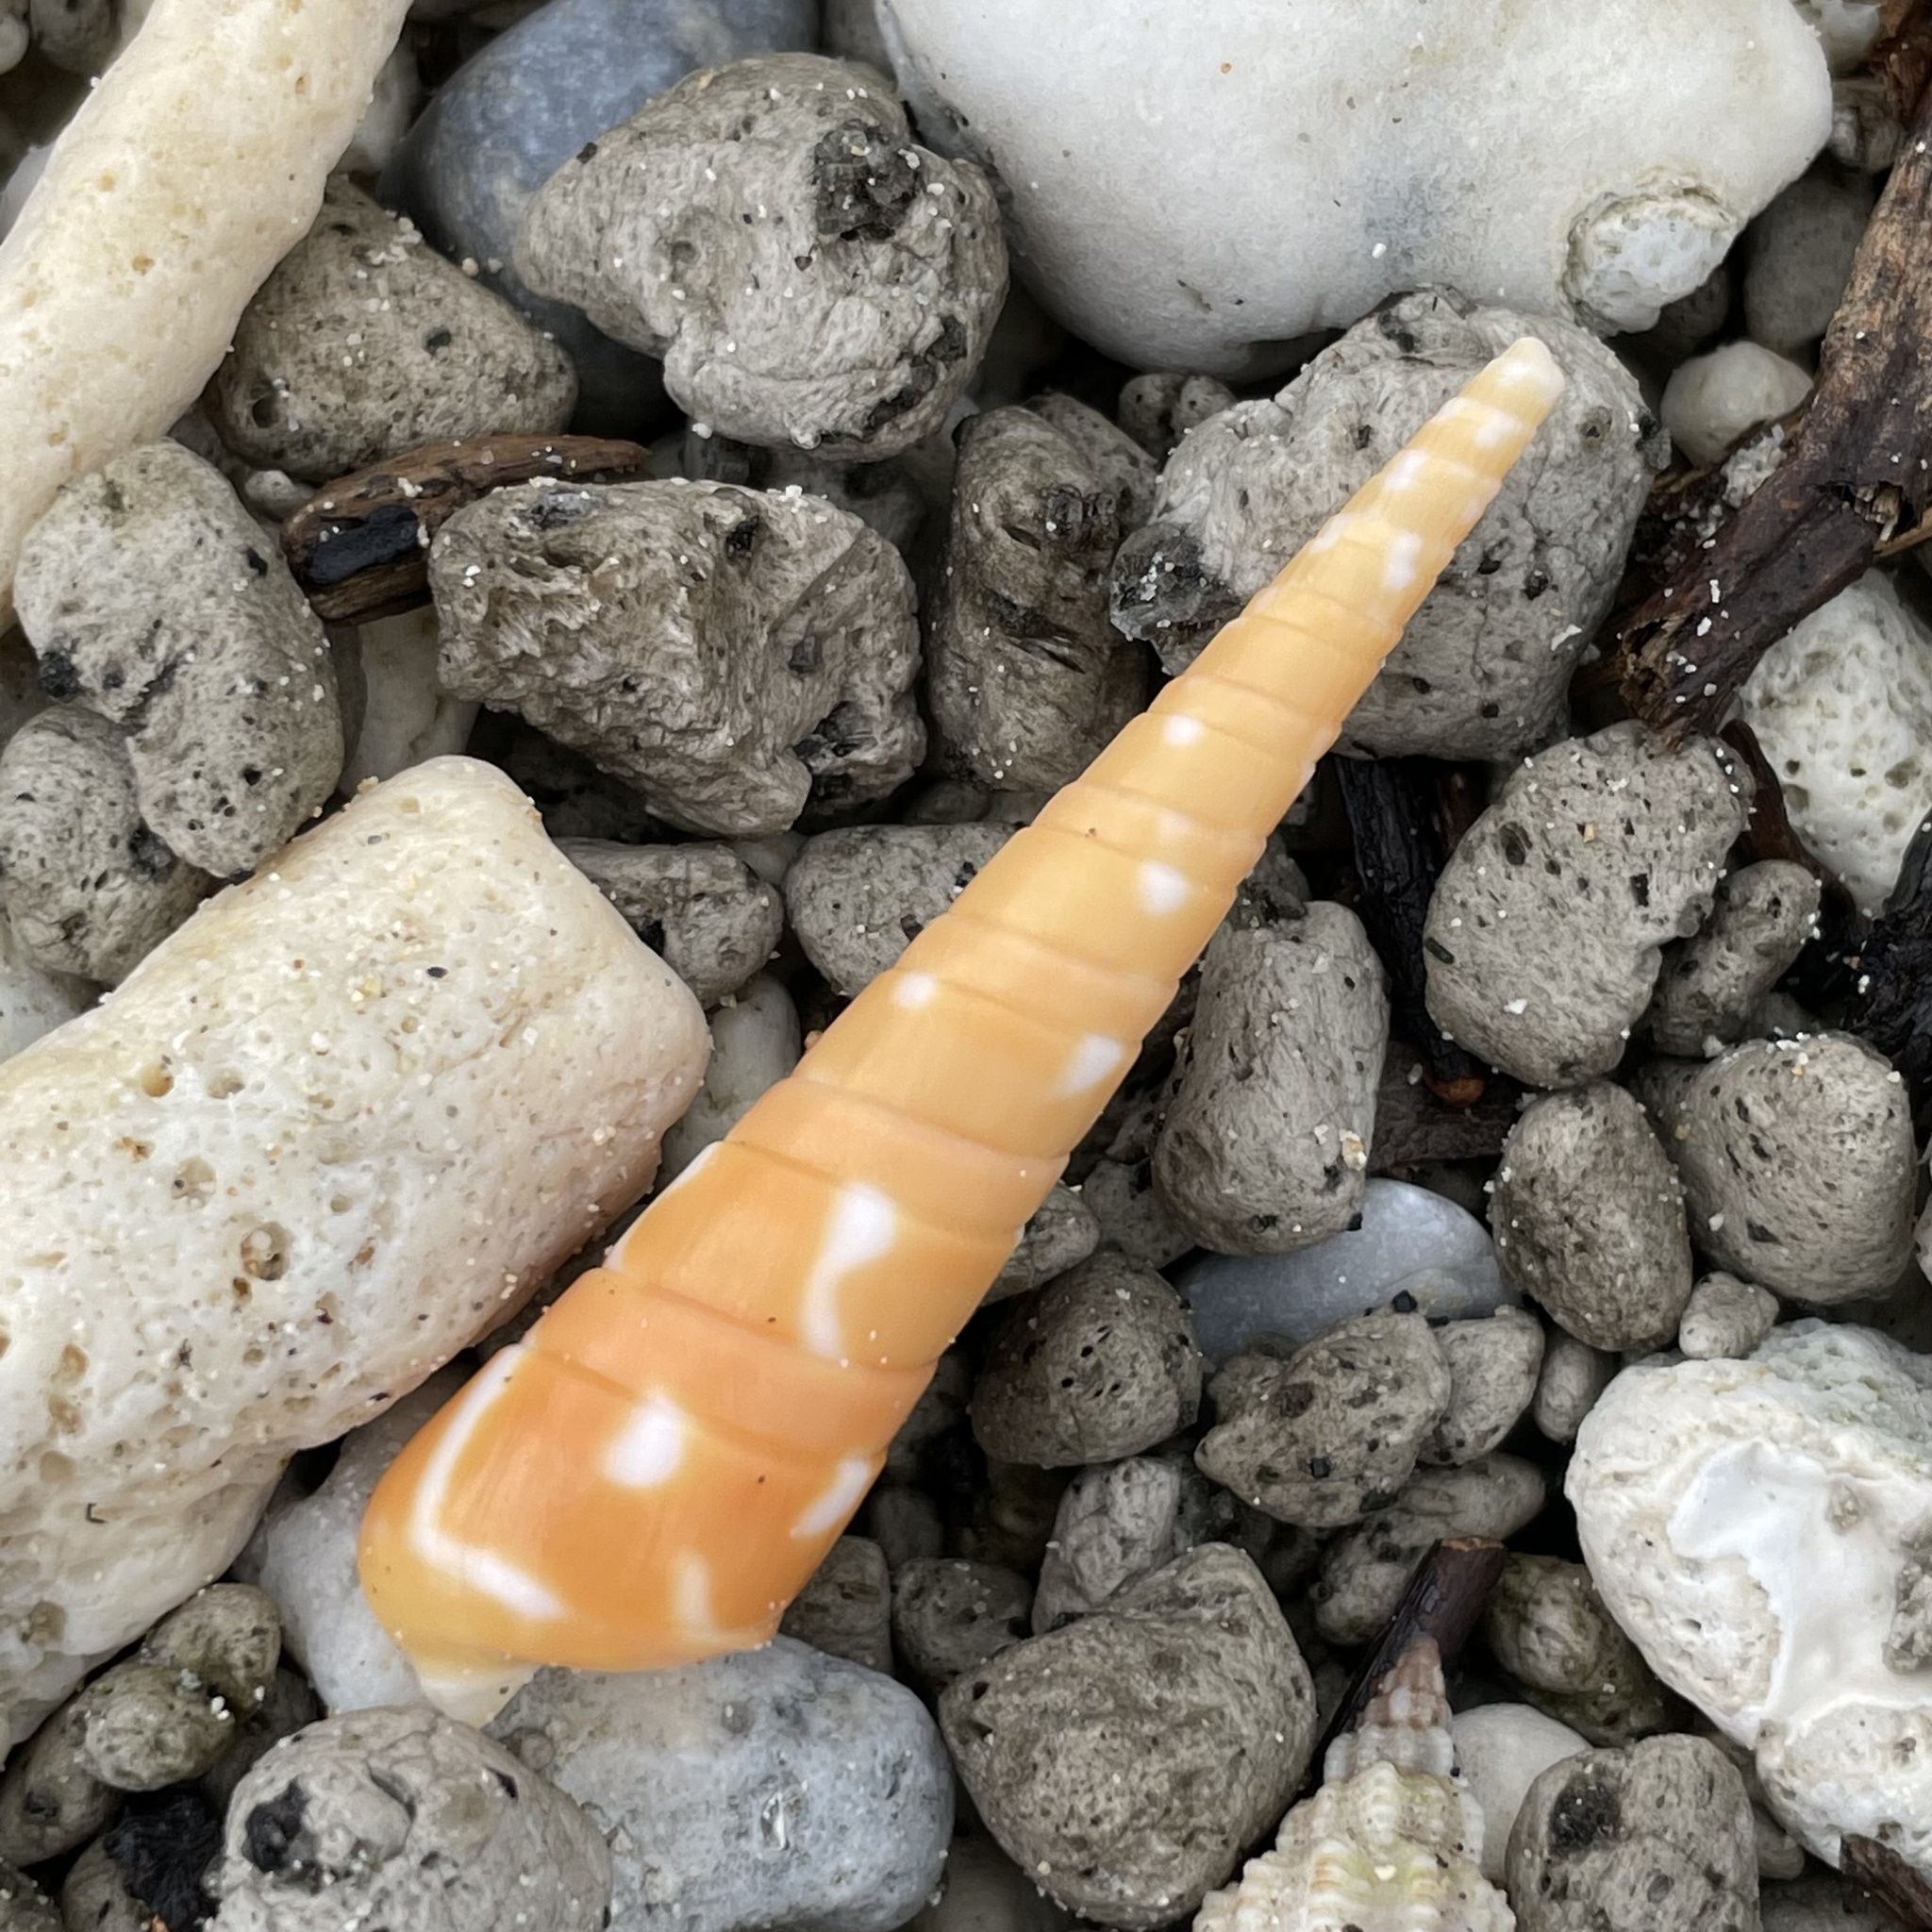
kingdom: Animalia
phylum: Mollusca
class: Gastropoda
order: Neogastropoda
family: Terebridae
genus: Oxymeris
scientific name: Oxymeris dimidiata
